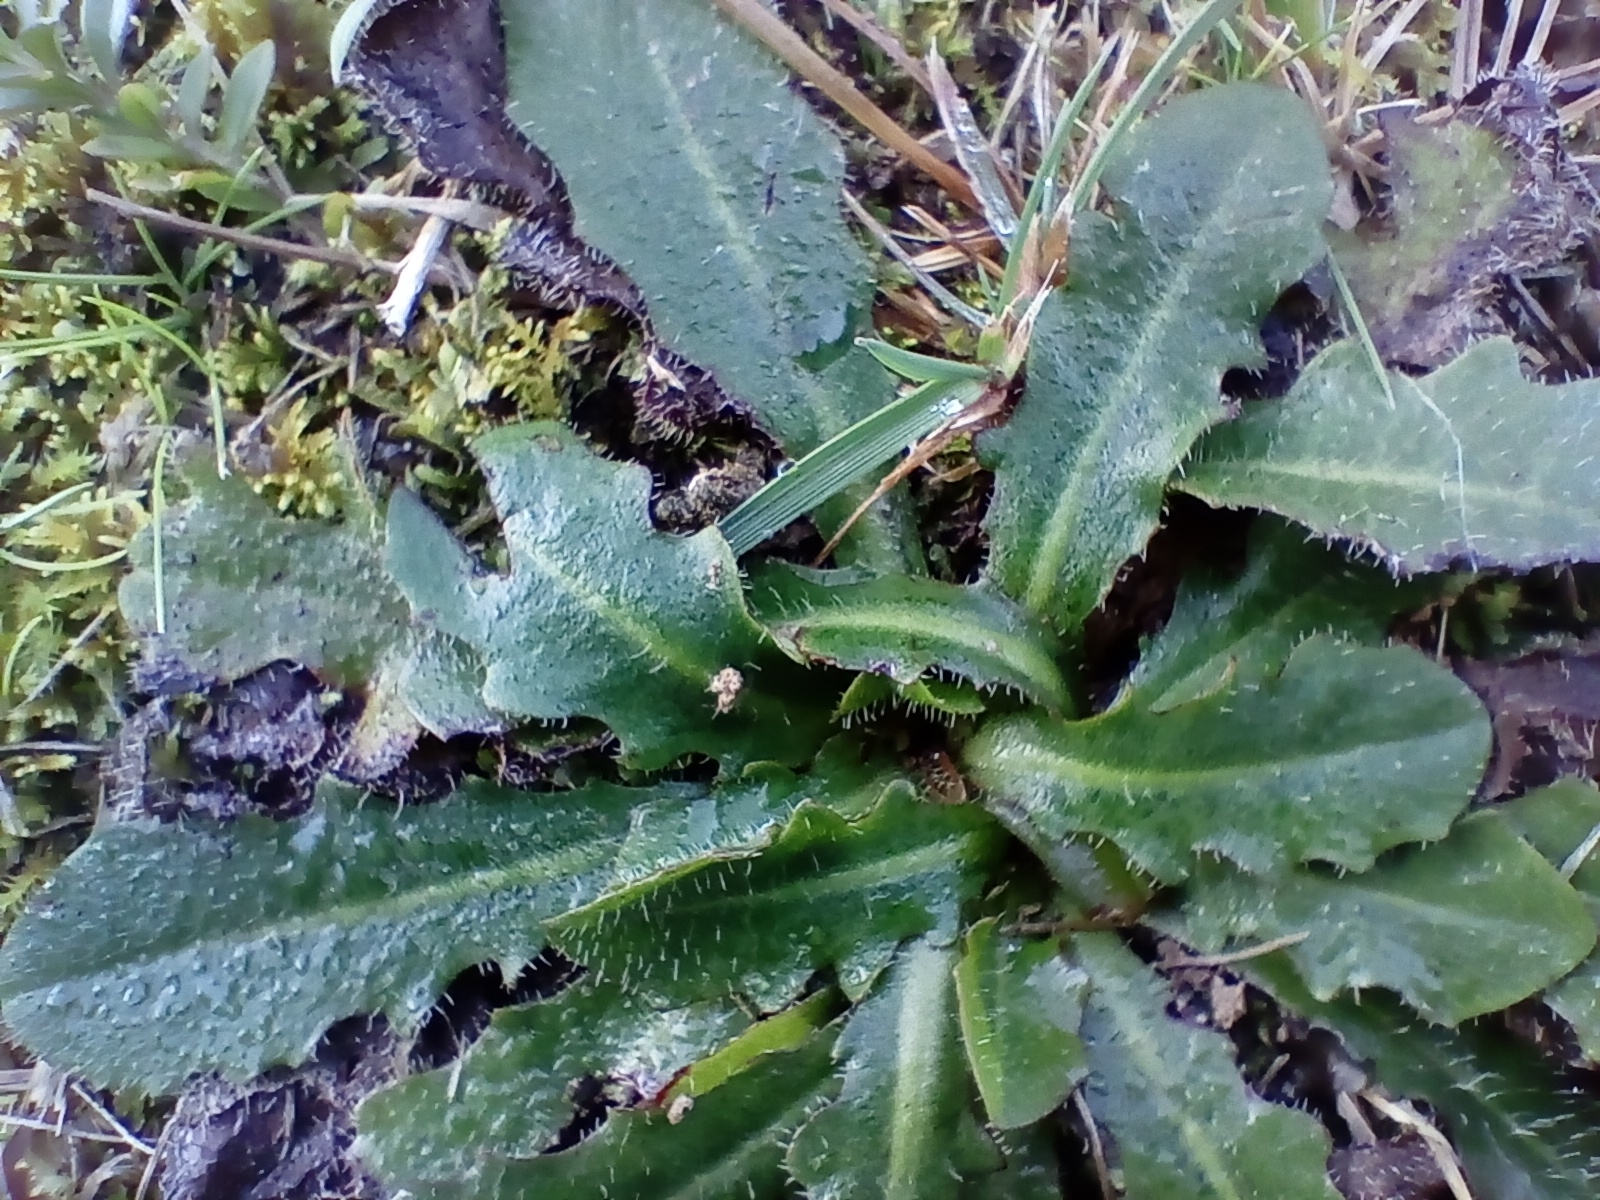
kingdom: Plantae
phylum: Tracheophyta
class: Magnoliopsida
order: Asterales
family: Asteraceae
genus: Hypochaeris
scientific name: Hypochaeris radicata
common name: Flatweed
